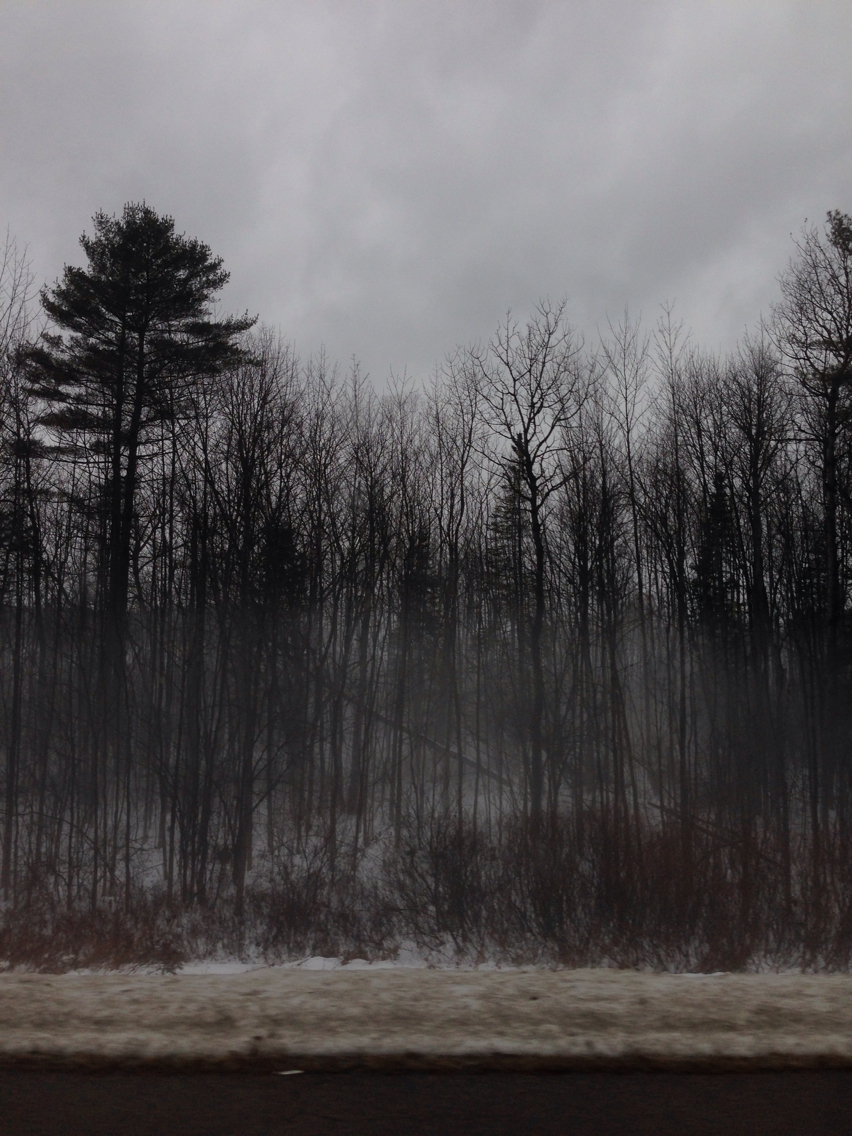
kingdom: Plantae
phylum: Tracheophyta
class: Pinopsida
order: Pinales
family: Pinaceae
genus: Pinus
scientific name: Pinus strobus
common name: Weymouth pine
